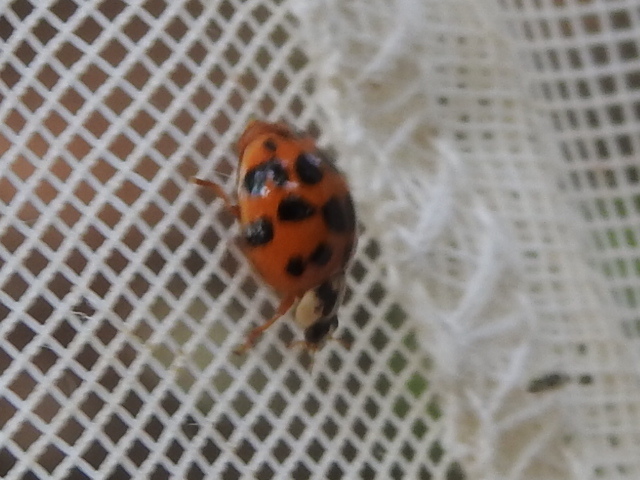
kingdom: Animalia
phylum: Arthropoda
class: Insecta
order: Coleoptera
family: Coccinellidae
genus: Harmonia
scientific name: Harmonia axyridis
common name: Harlequin ladybird
